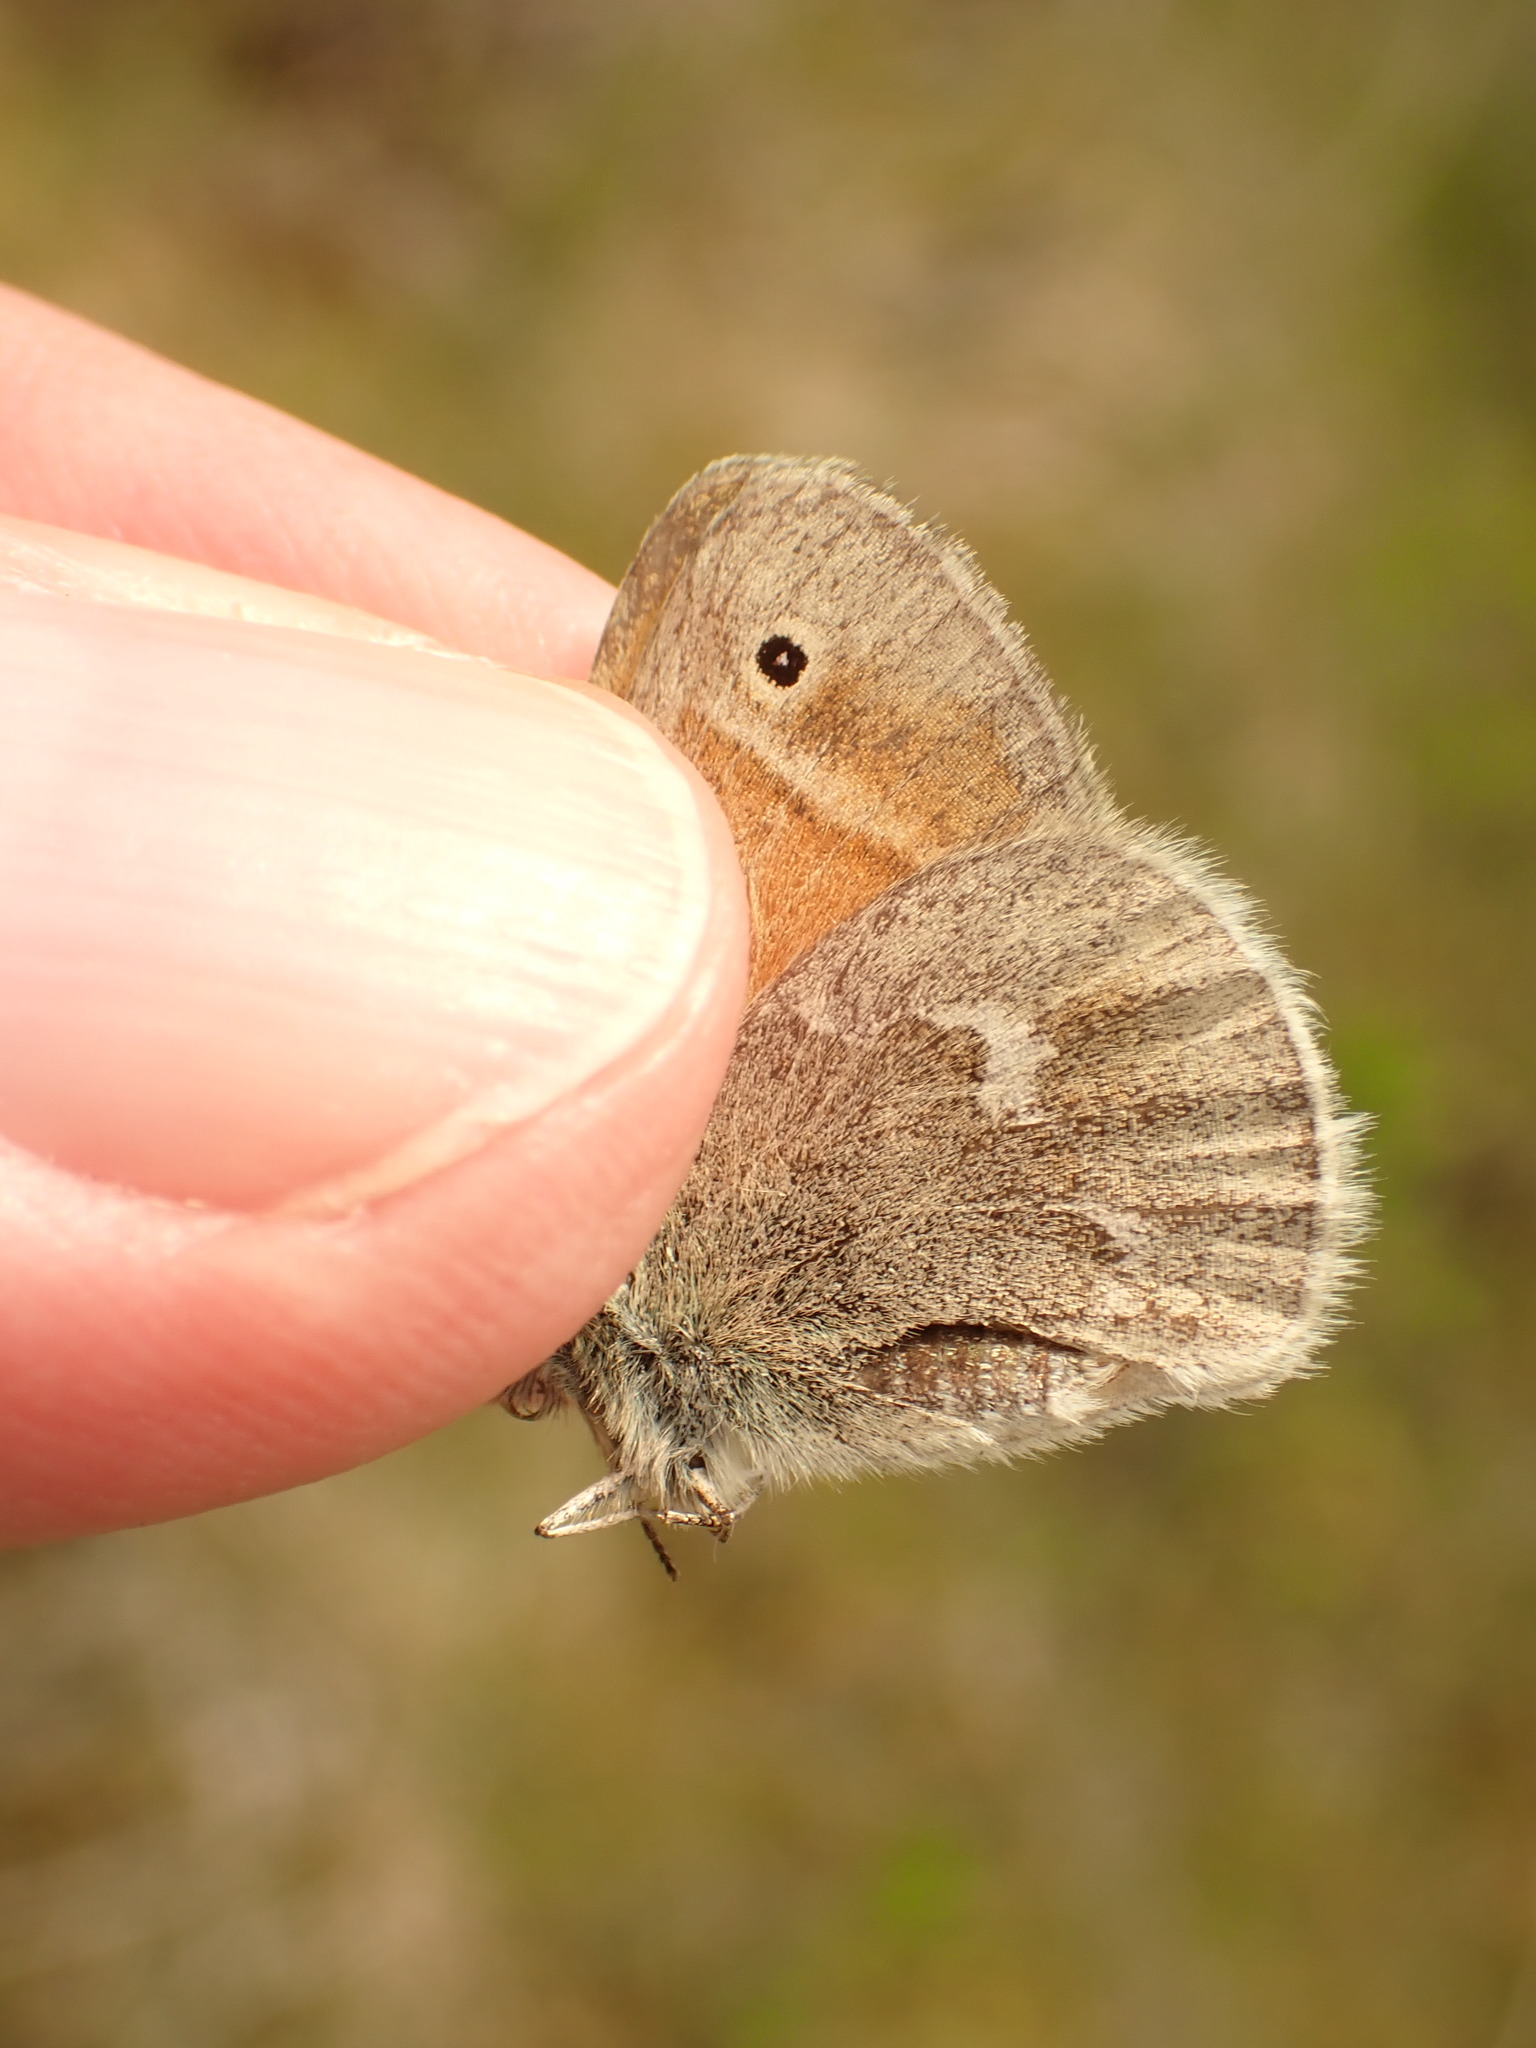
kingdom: Animalia
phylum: Arthropoda
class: Insecta
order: Lepidoptera
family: Nymphalidae
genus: Coenonympha
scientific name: Coenonympha california
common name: Common ringlet
